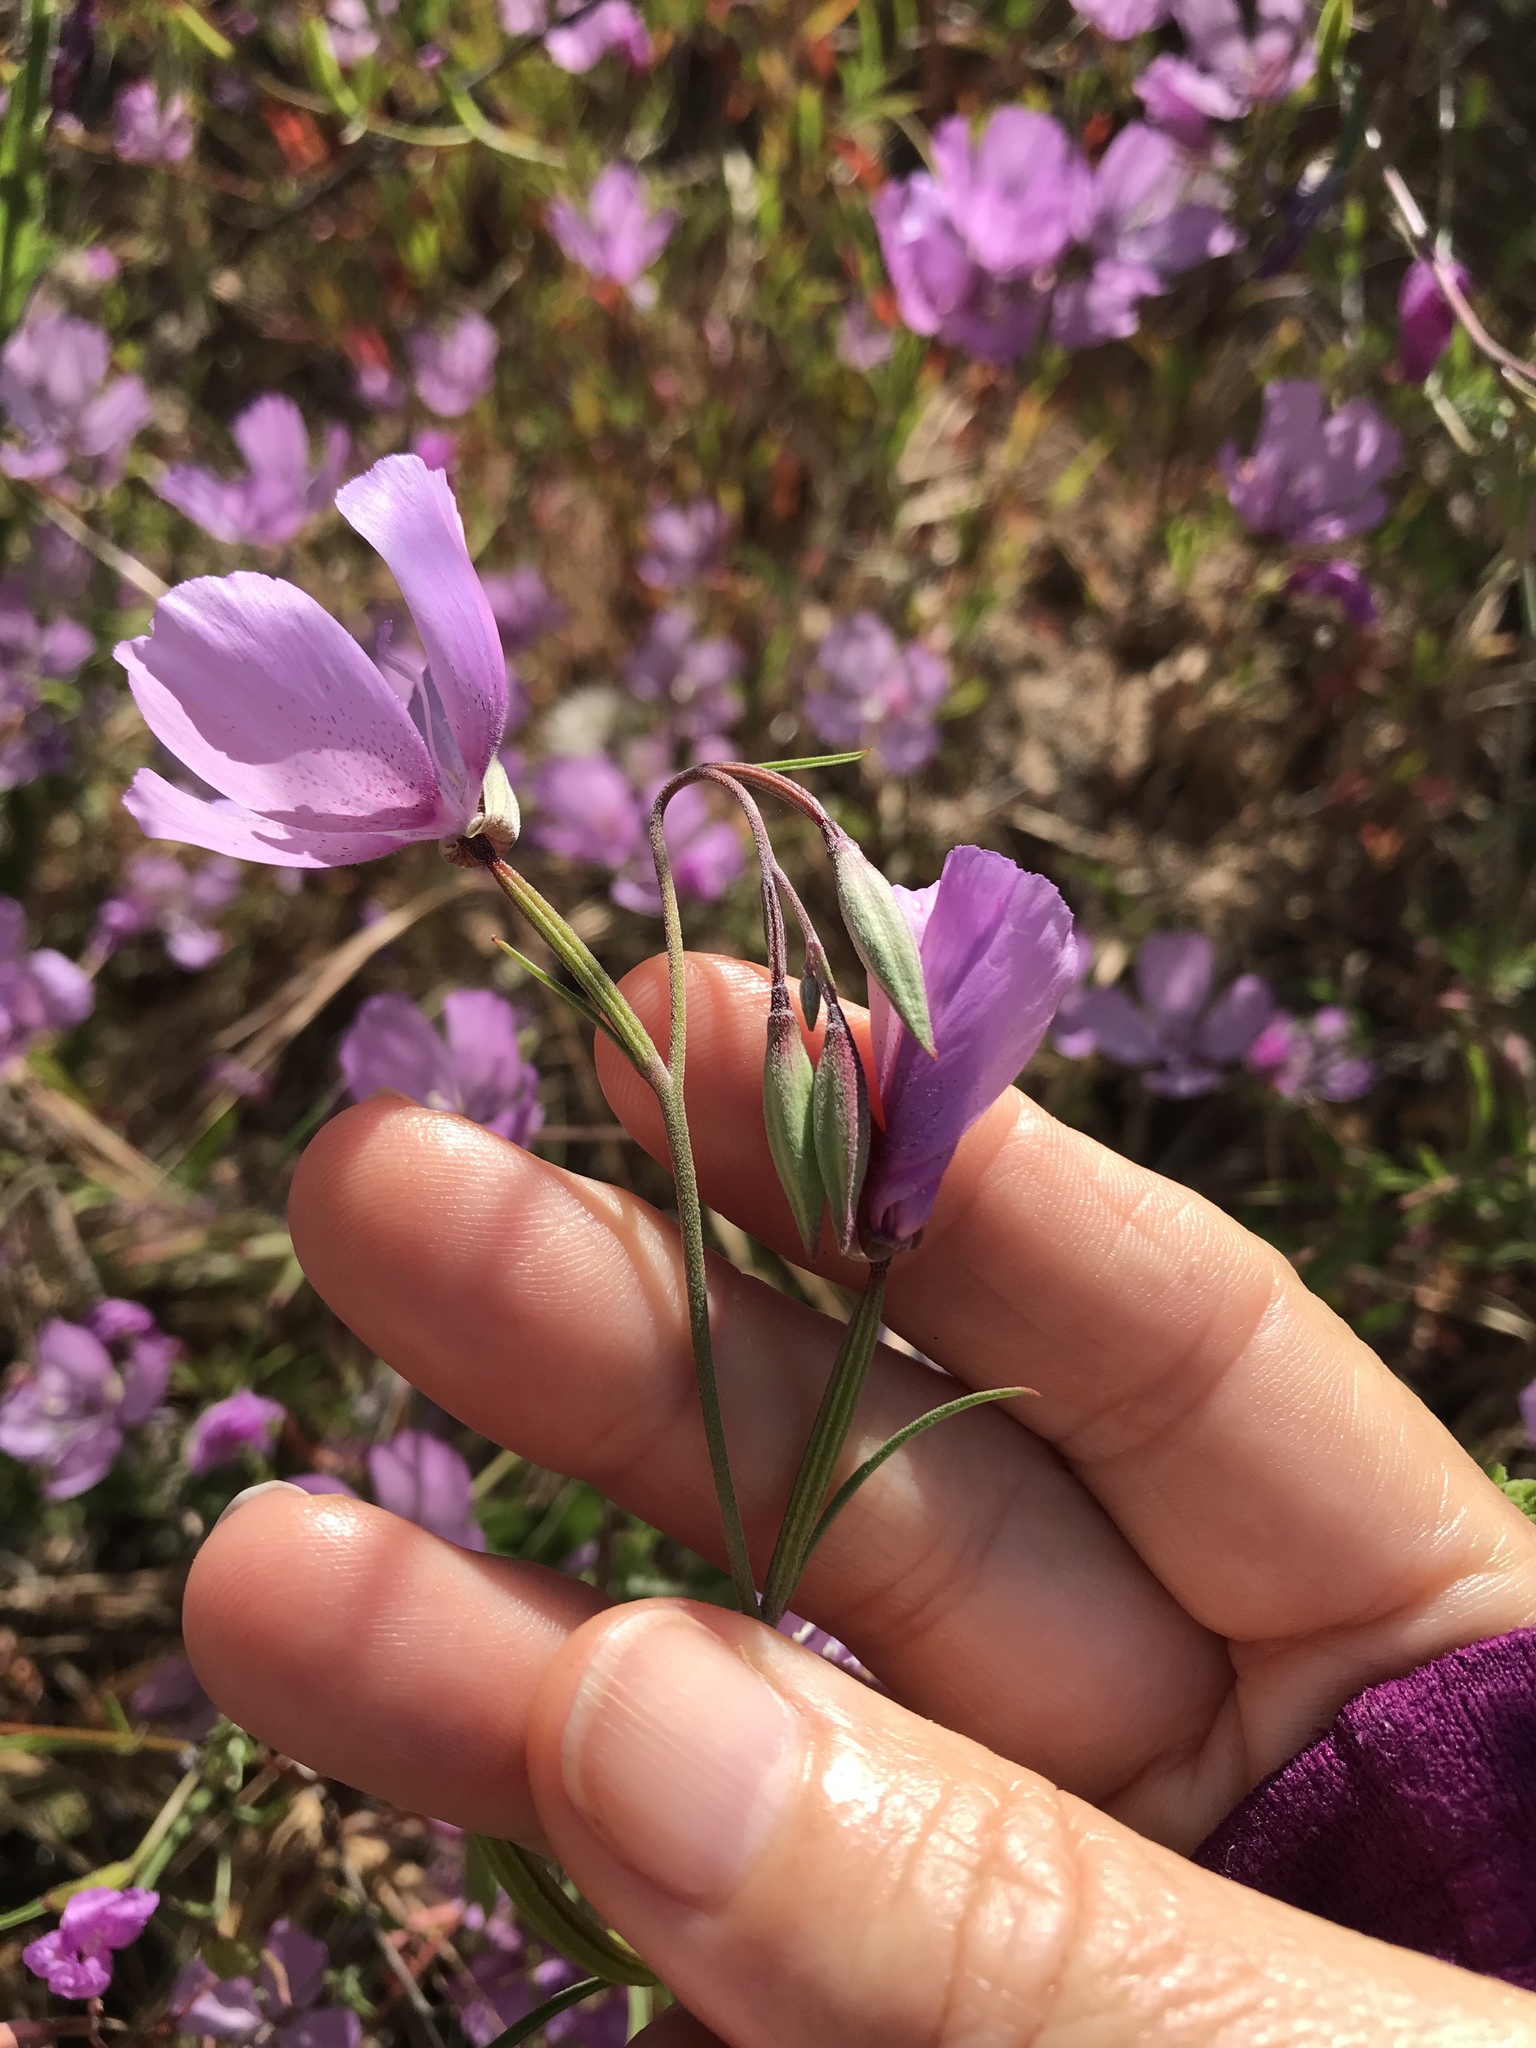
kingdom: Plantae
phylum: Tracheophyta
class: Magnoliopsida
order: Myrtales
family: Onagraceae
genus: Clarkia
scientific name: Clarkia dudleyana
